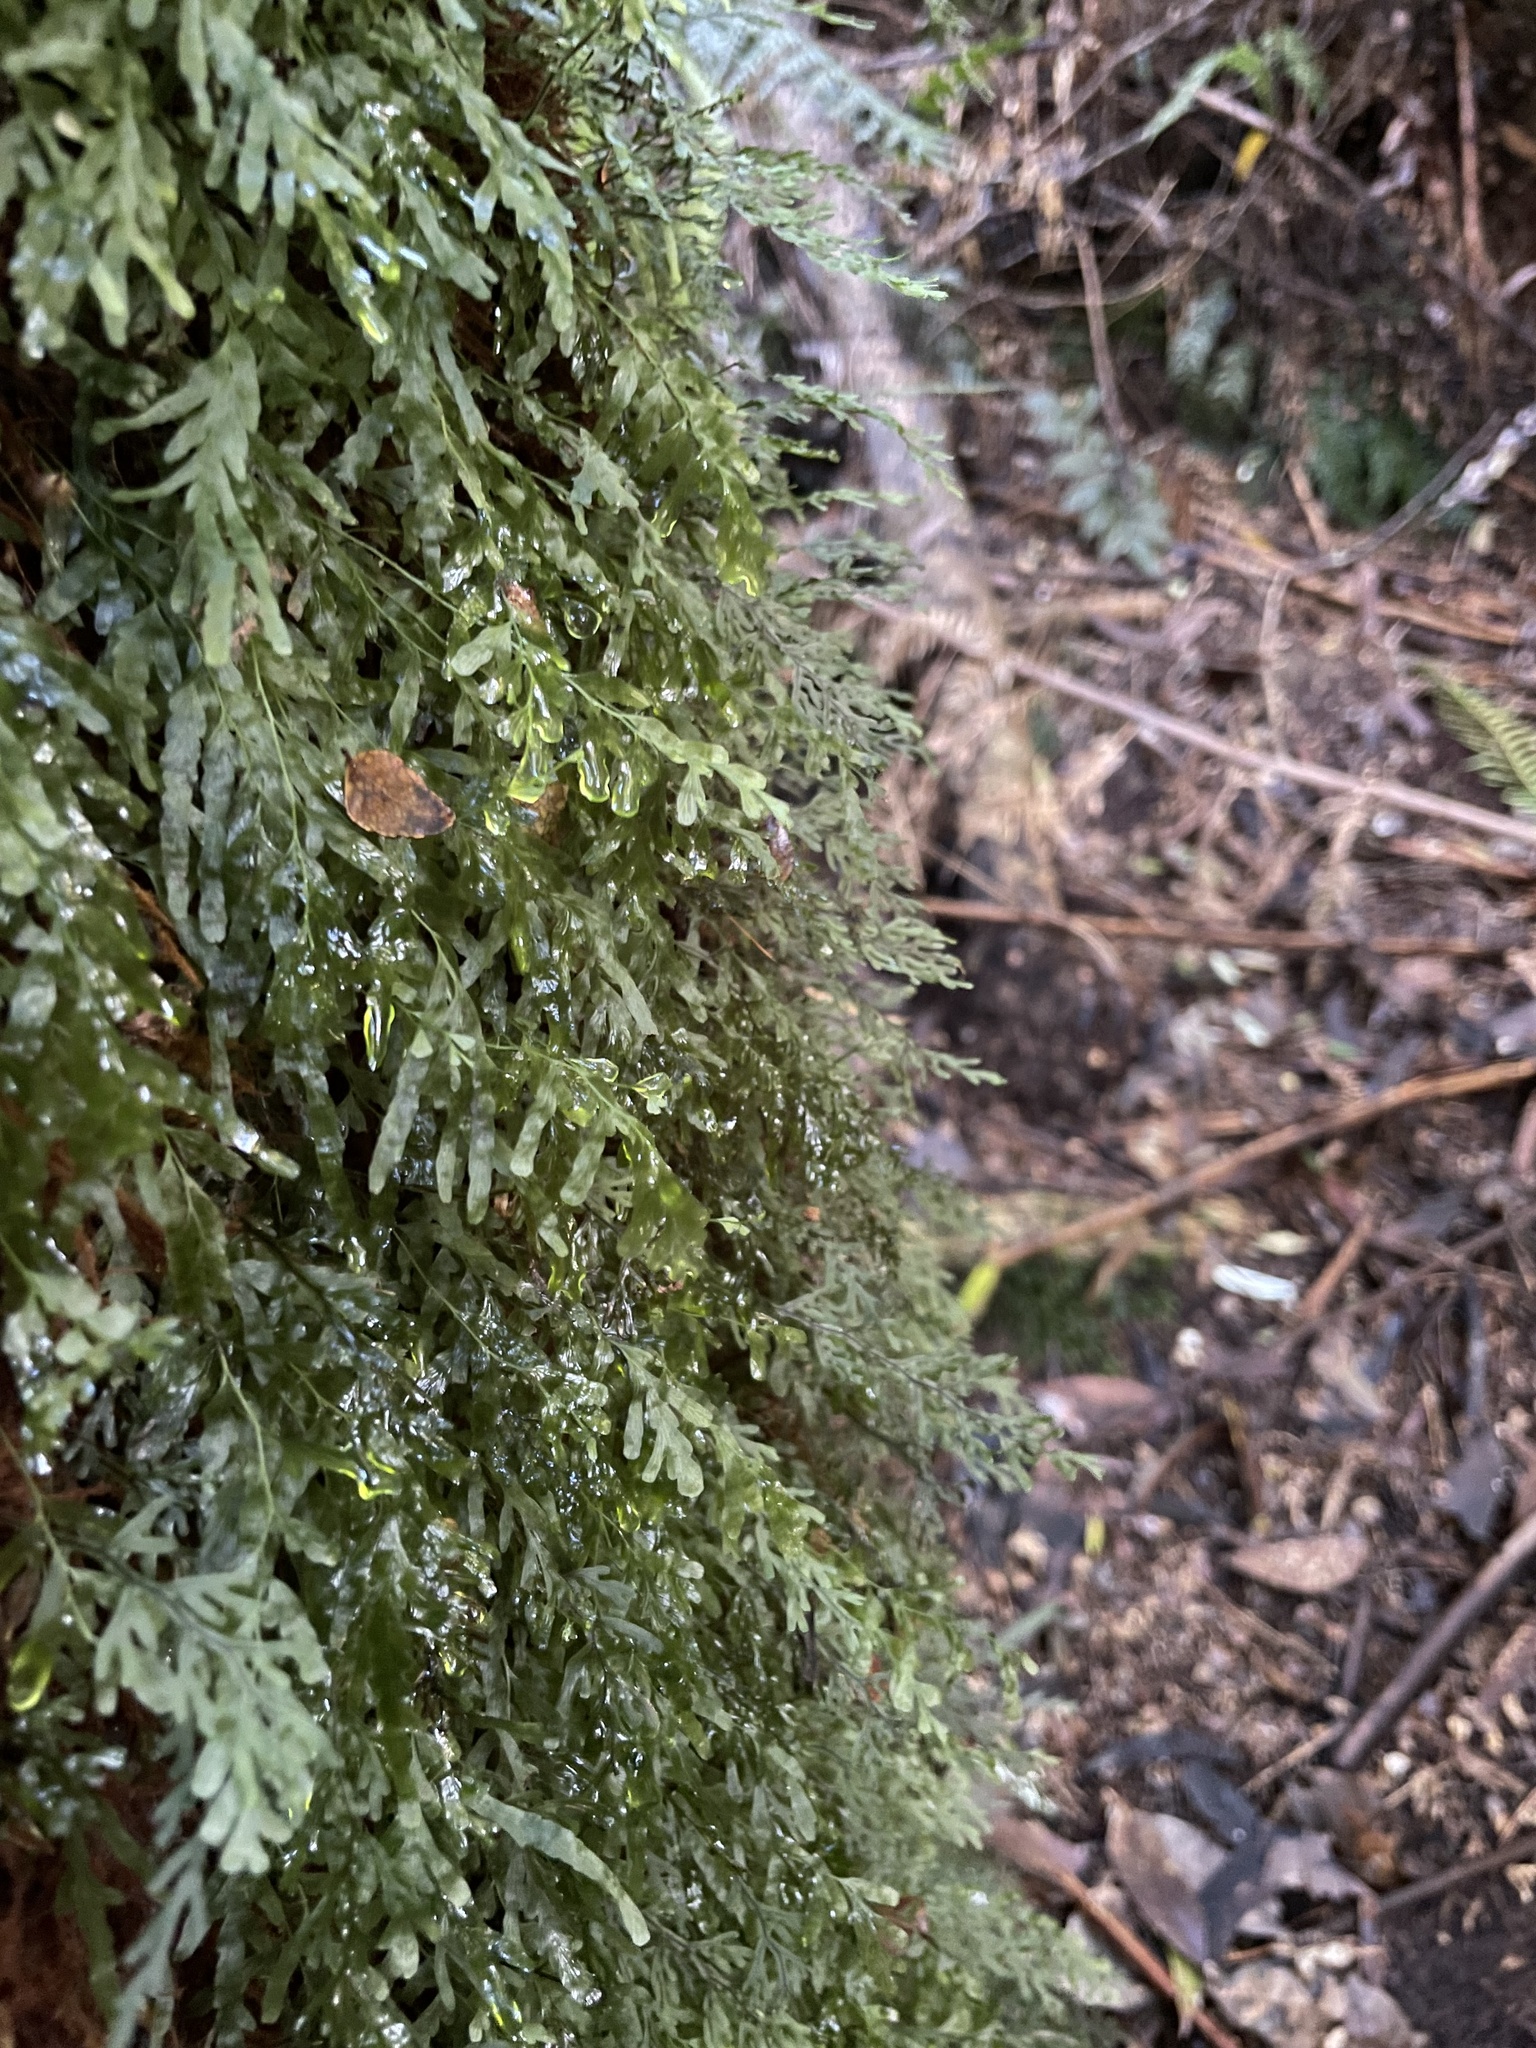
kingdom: Plantae
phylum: Tracheophyta
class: Polypodiopsida
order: Hymenophyllales
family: Hymenophyllaceae
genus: Polyphlebium
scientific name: Polyphlebium venosum
